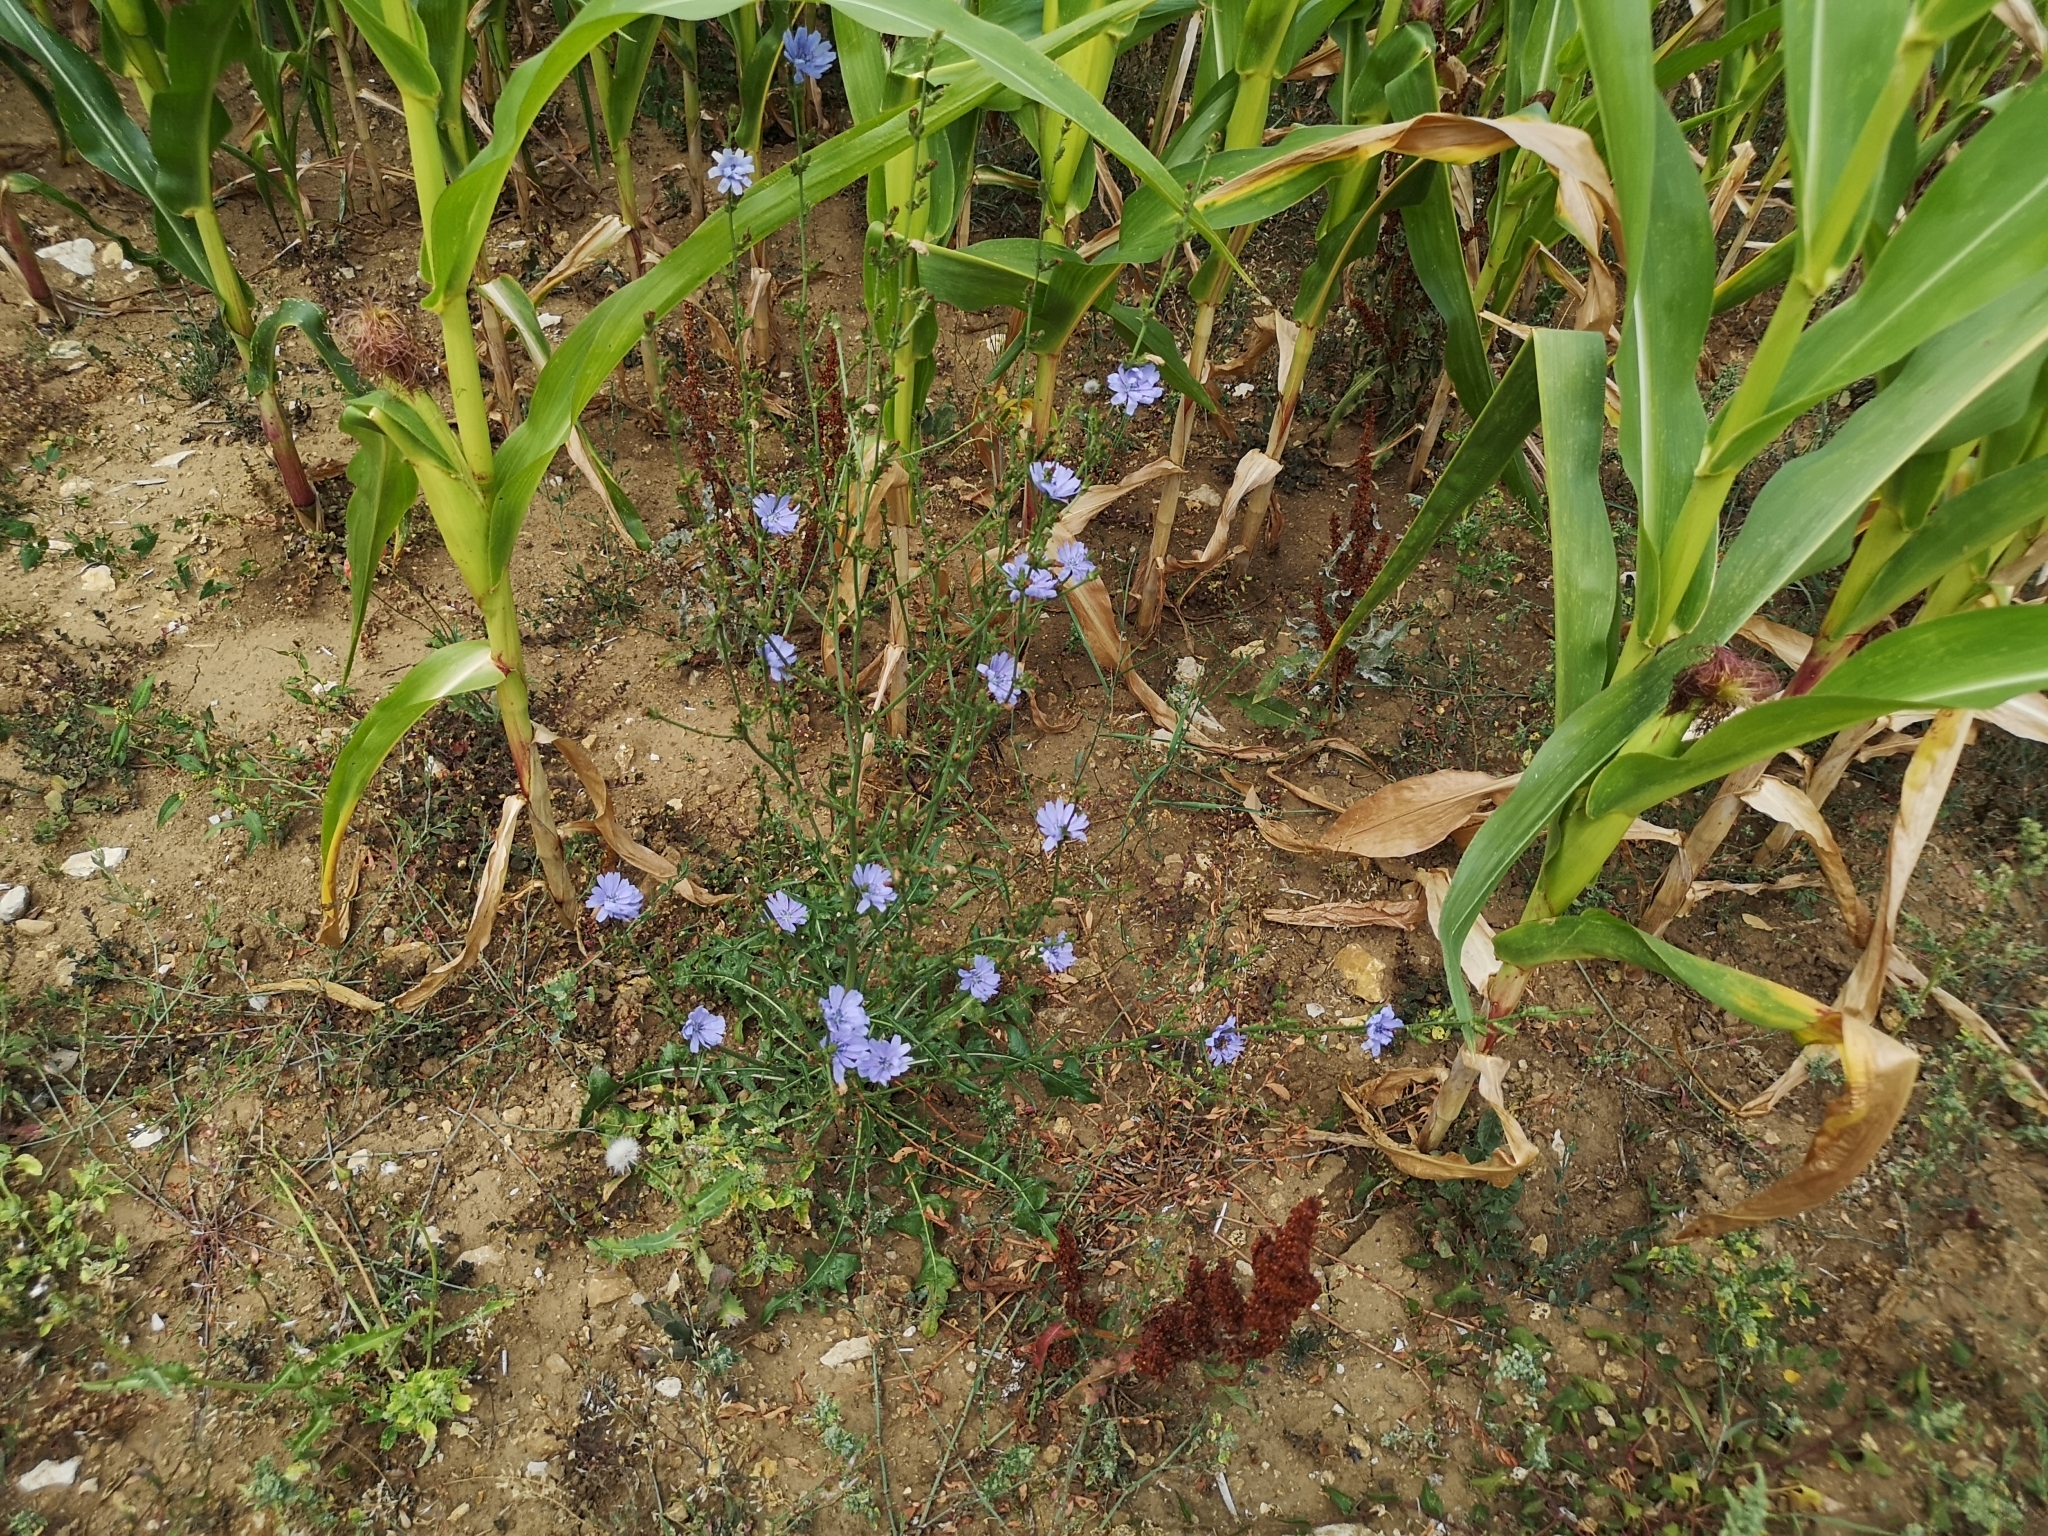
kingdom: Plantae
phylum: Tracheophyta
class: Magnoliopsida
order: Asterales
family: Asteraceae
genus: Cichorium
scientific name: Cichorium intybus
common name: Chicory
